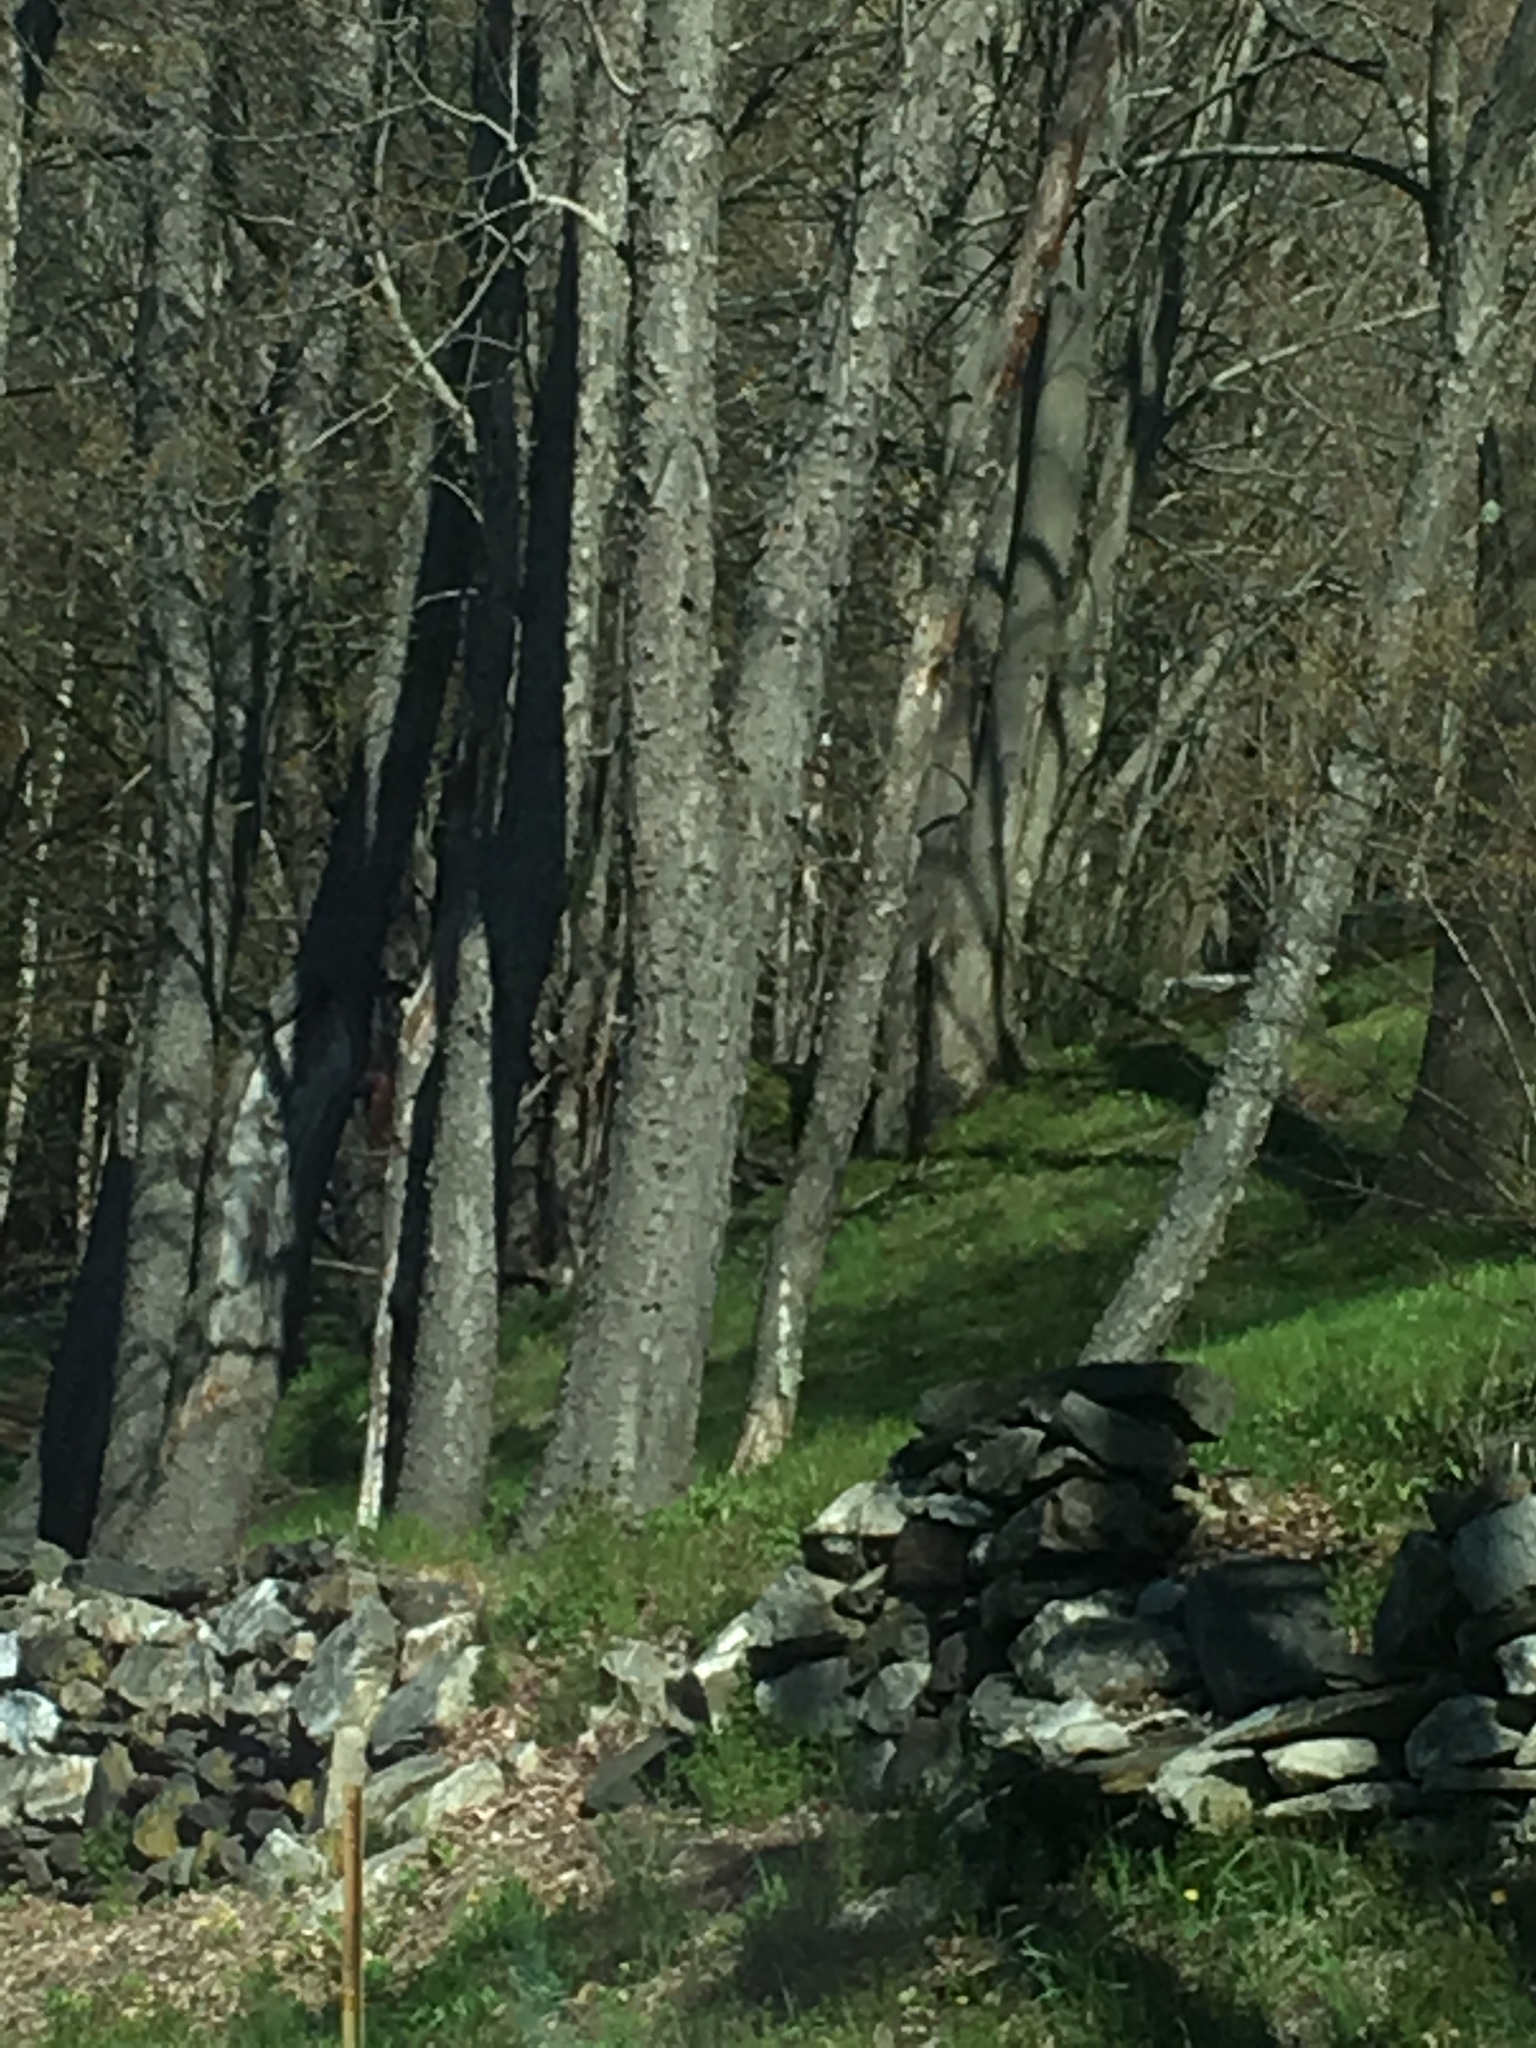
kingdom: Plantae
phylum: Tracheophyta
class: Magnoliopsida
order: Rosales
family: Rosaceae
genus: Prunus
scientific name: Prunus serotina
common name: Black cherry
